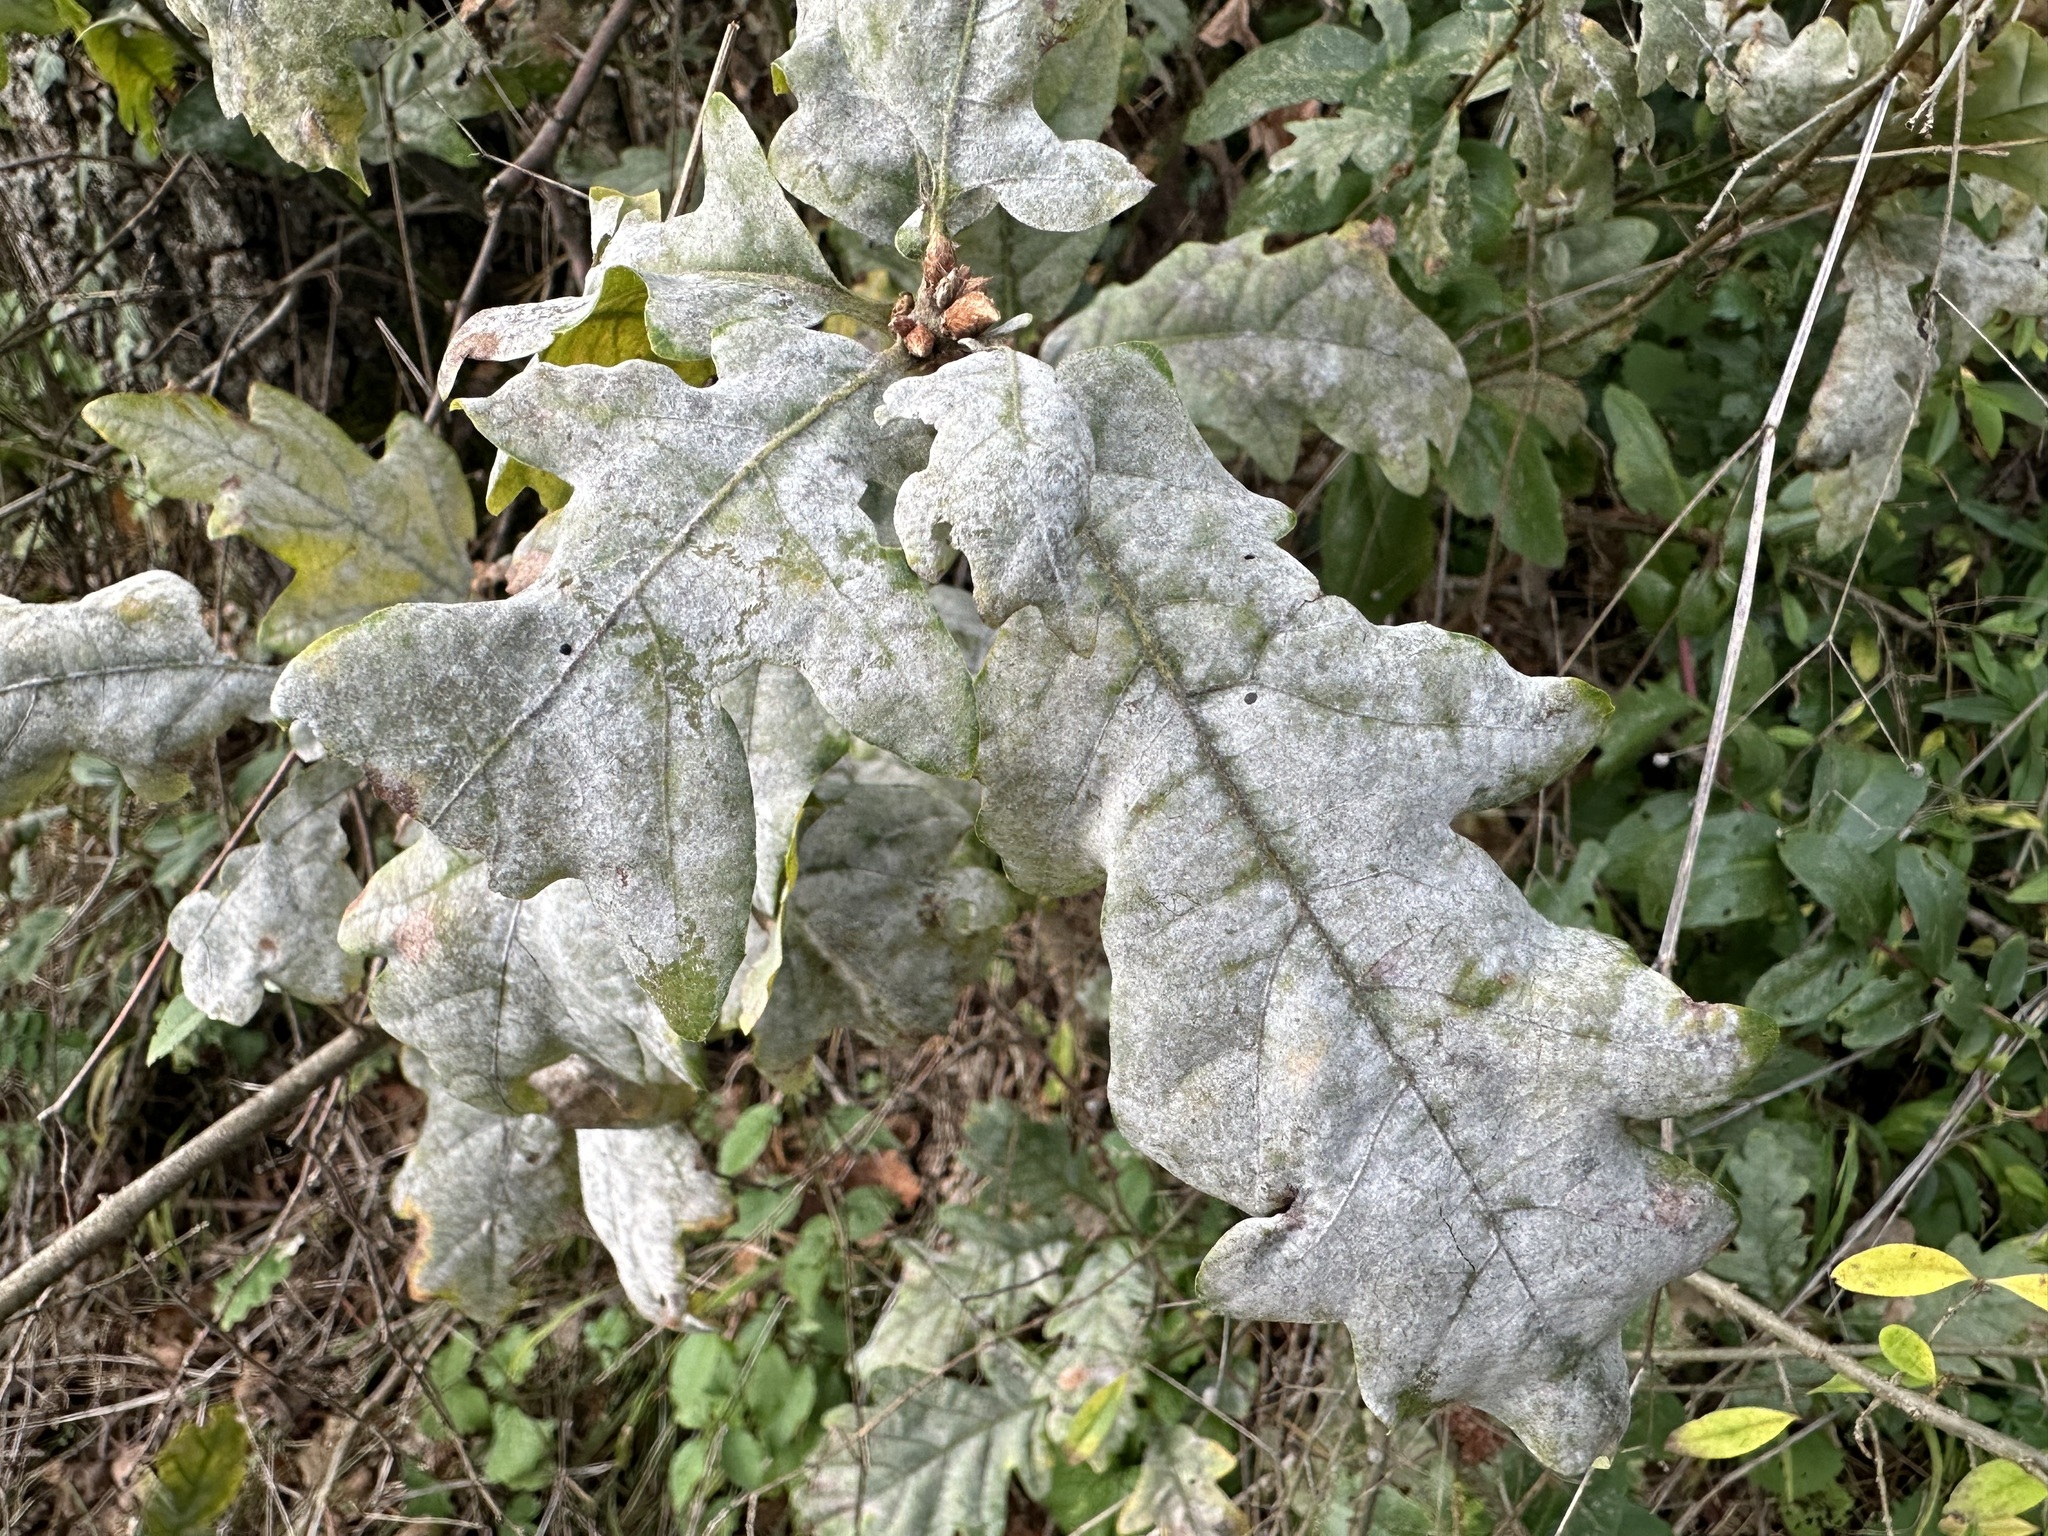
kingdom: Fungi
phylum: Ascomycota
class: Leotiomycetes
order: Helotiales
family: Erysiphaceae
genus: Erysiphe
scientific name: Erysiphe
